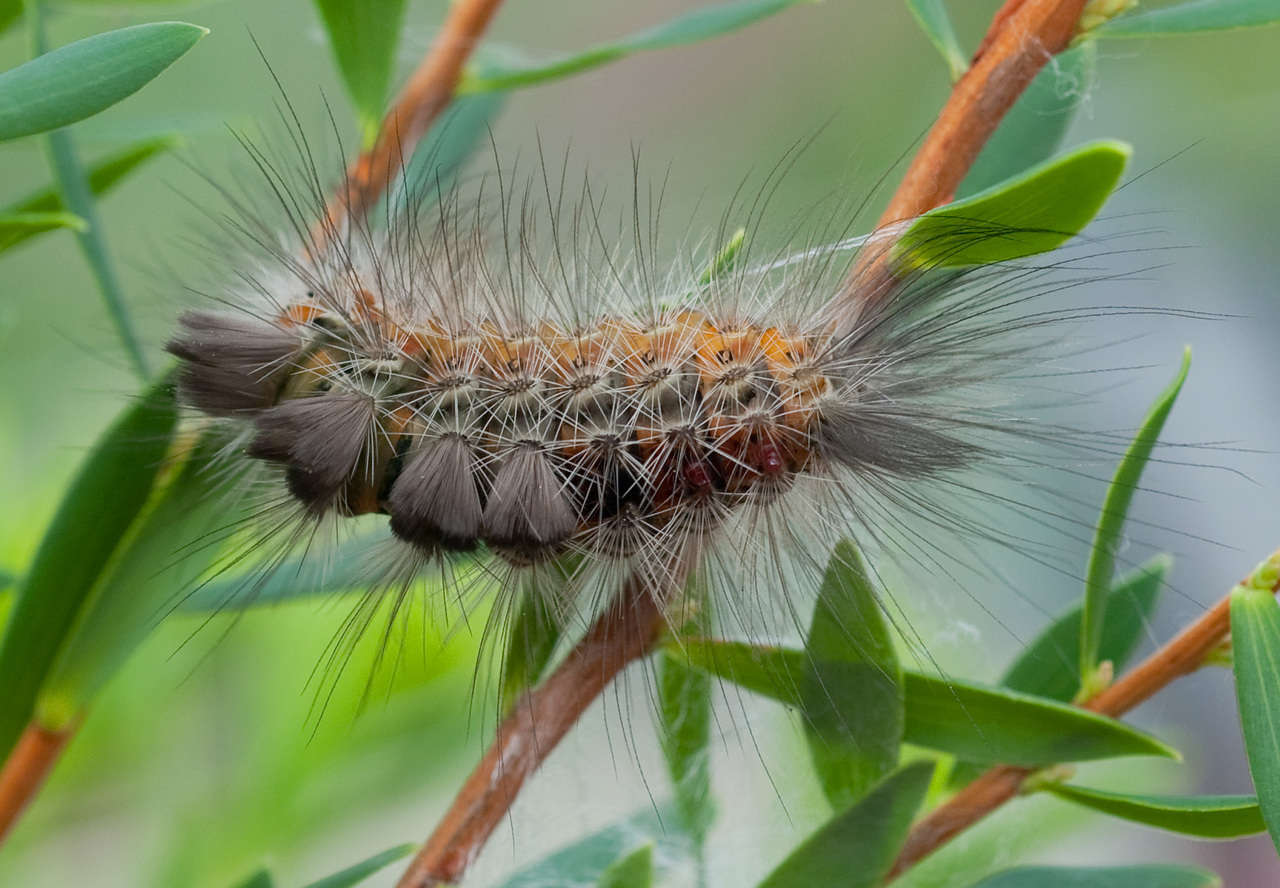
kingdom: Animalia
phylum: Arthropoda
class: Insecta
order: Lepidoptera
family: Erebidae
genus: Orgyia
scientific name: Orgyia
